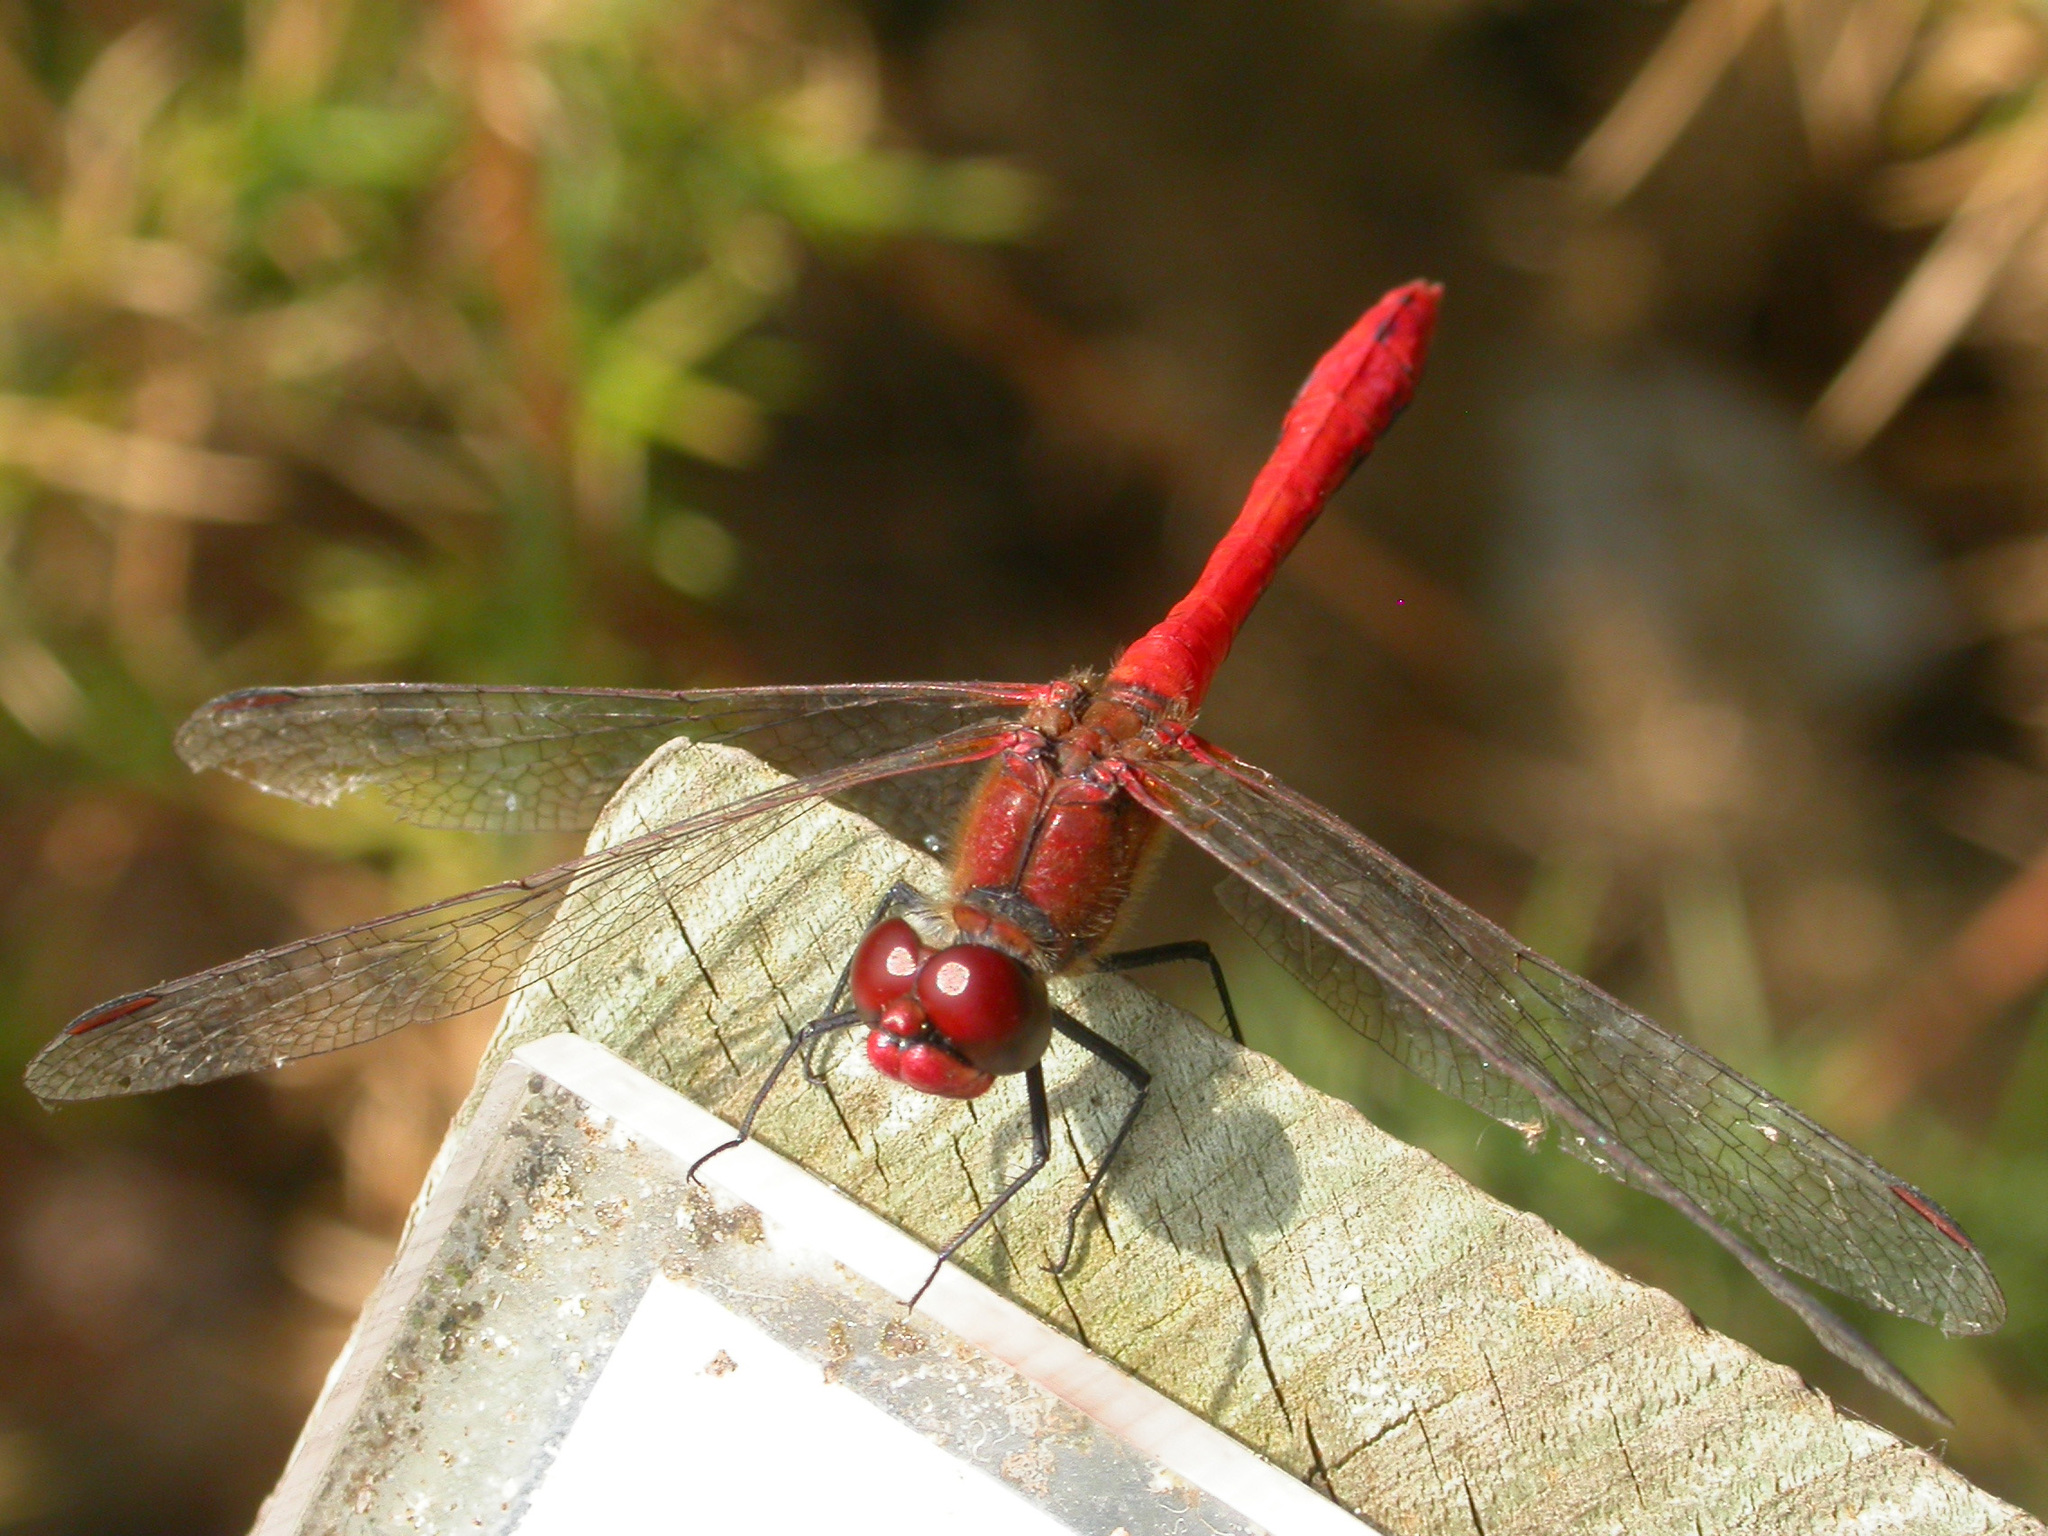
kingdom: Animalia
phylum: Arthropoda
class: Insecta
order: Odonata
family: Libellulidae
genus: Sympetrum
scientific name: Sympetrum sanguineum
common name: Ruddy darter
